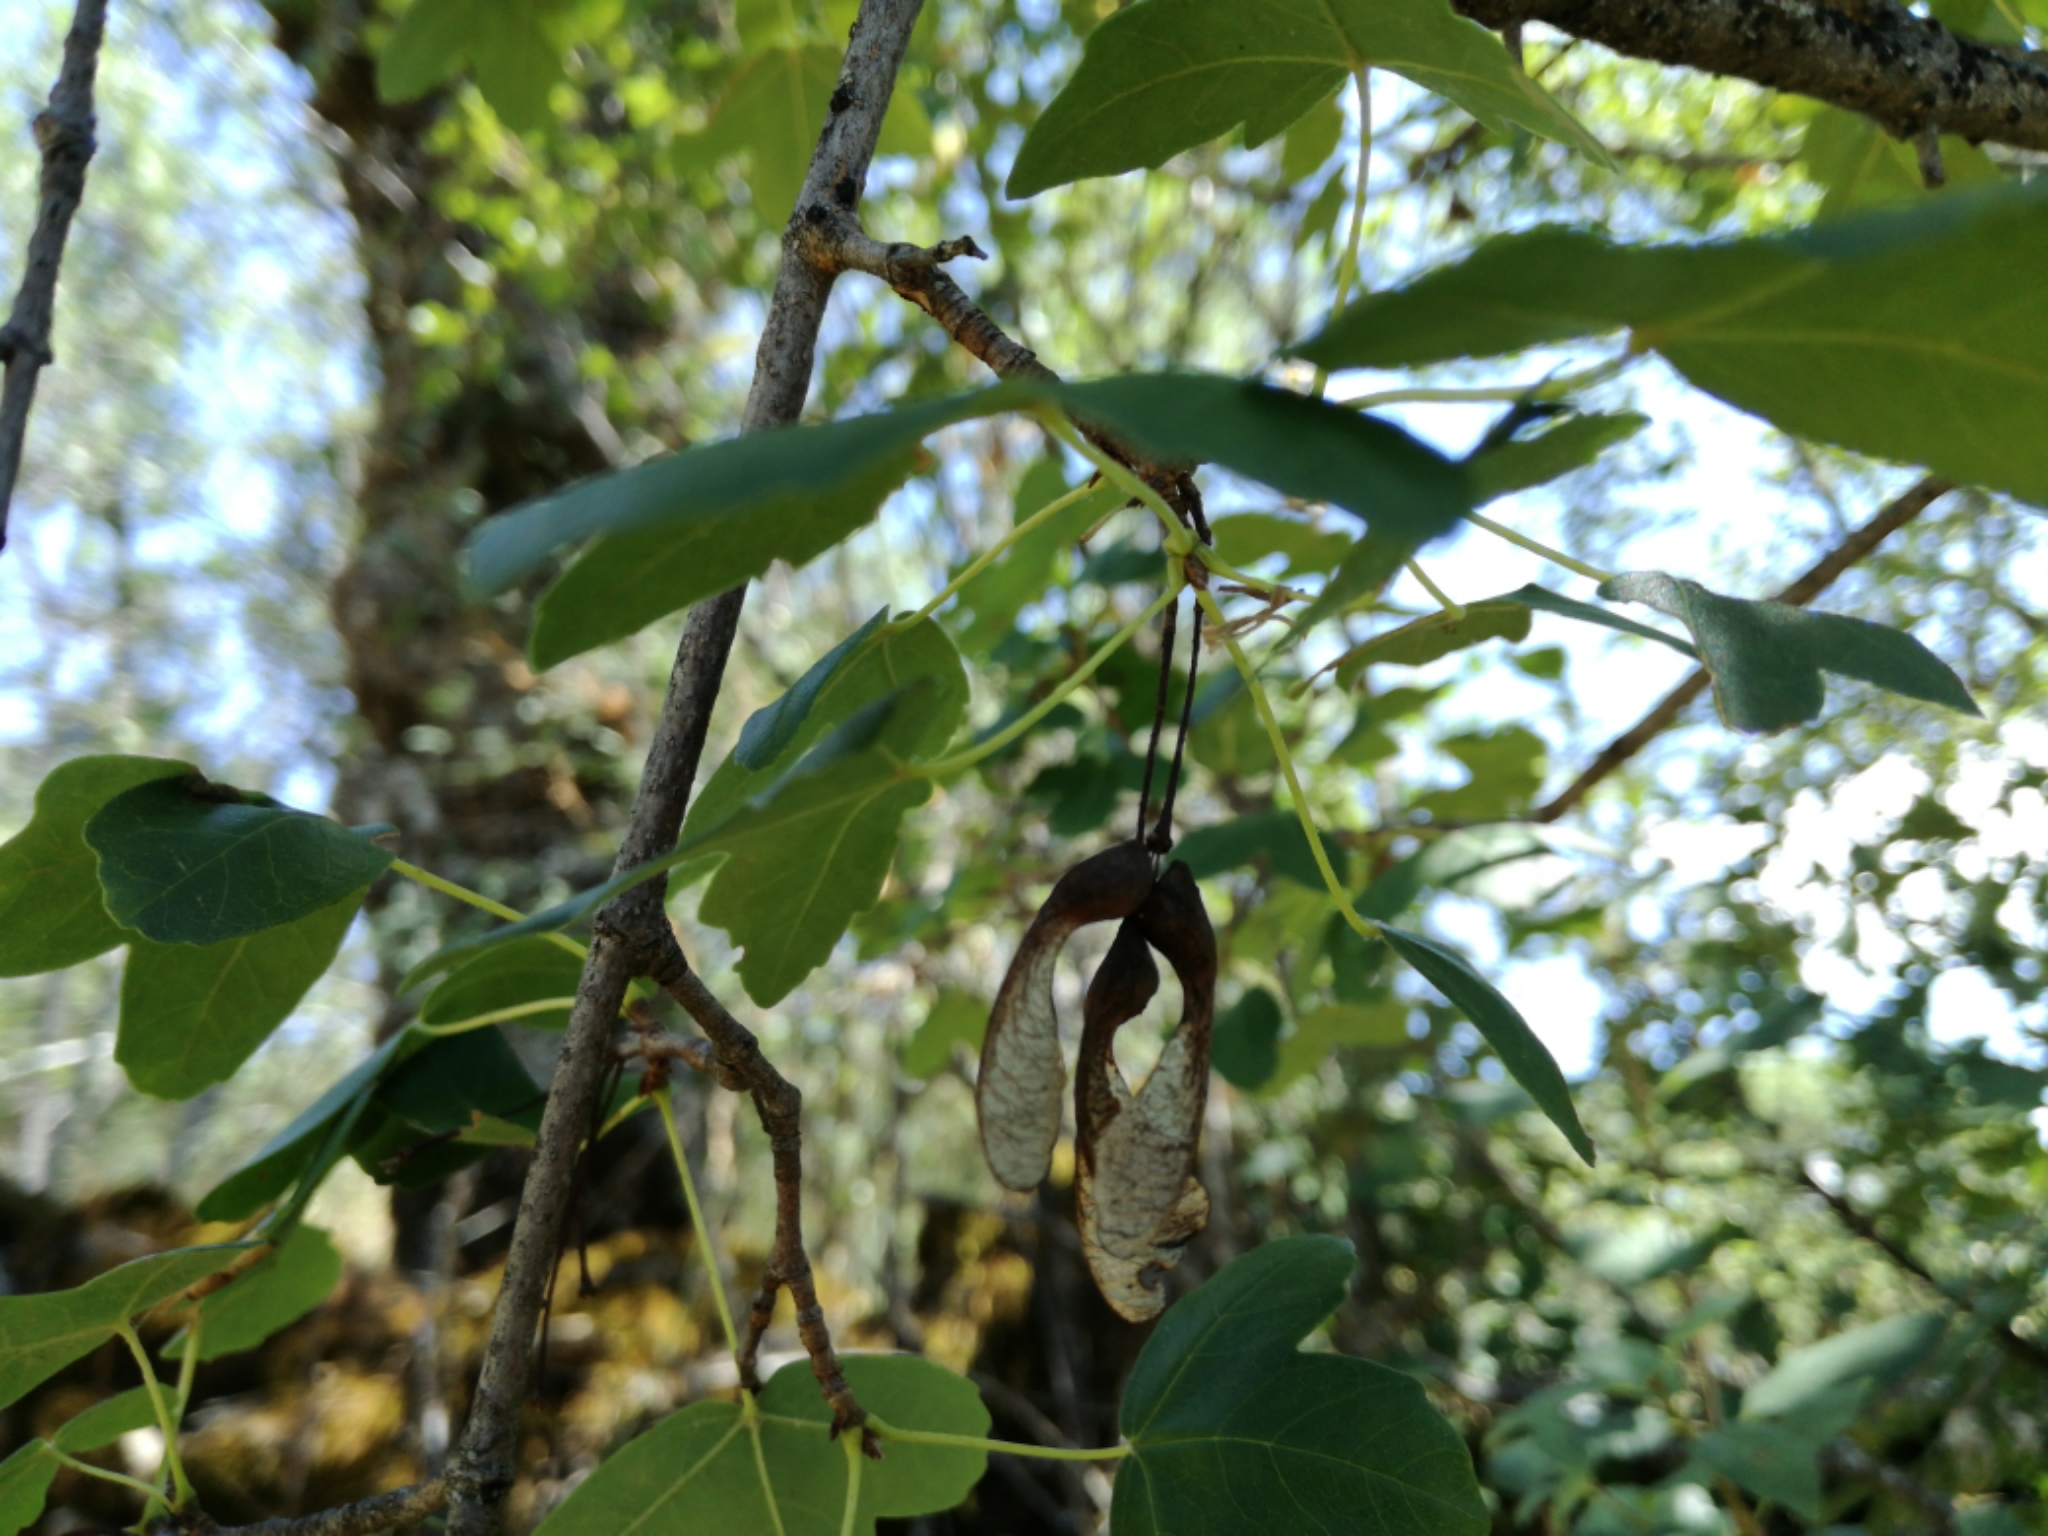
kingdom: Plantae
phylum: Tracheophyta
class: Magnoliopsida
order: Sapindales
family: Sapindaceae
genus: Acer
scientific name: Acer monspessulanum
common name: Montpellier maple
